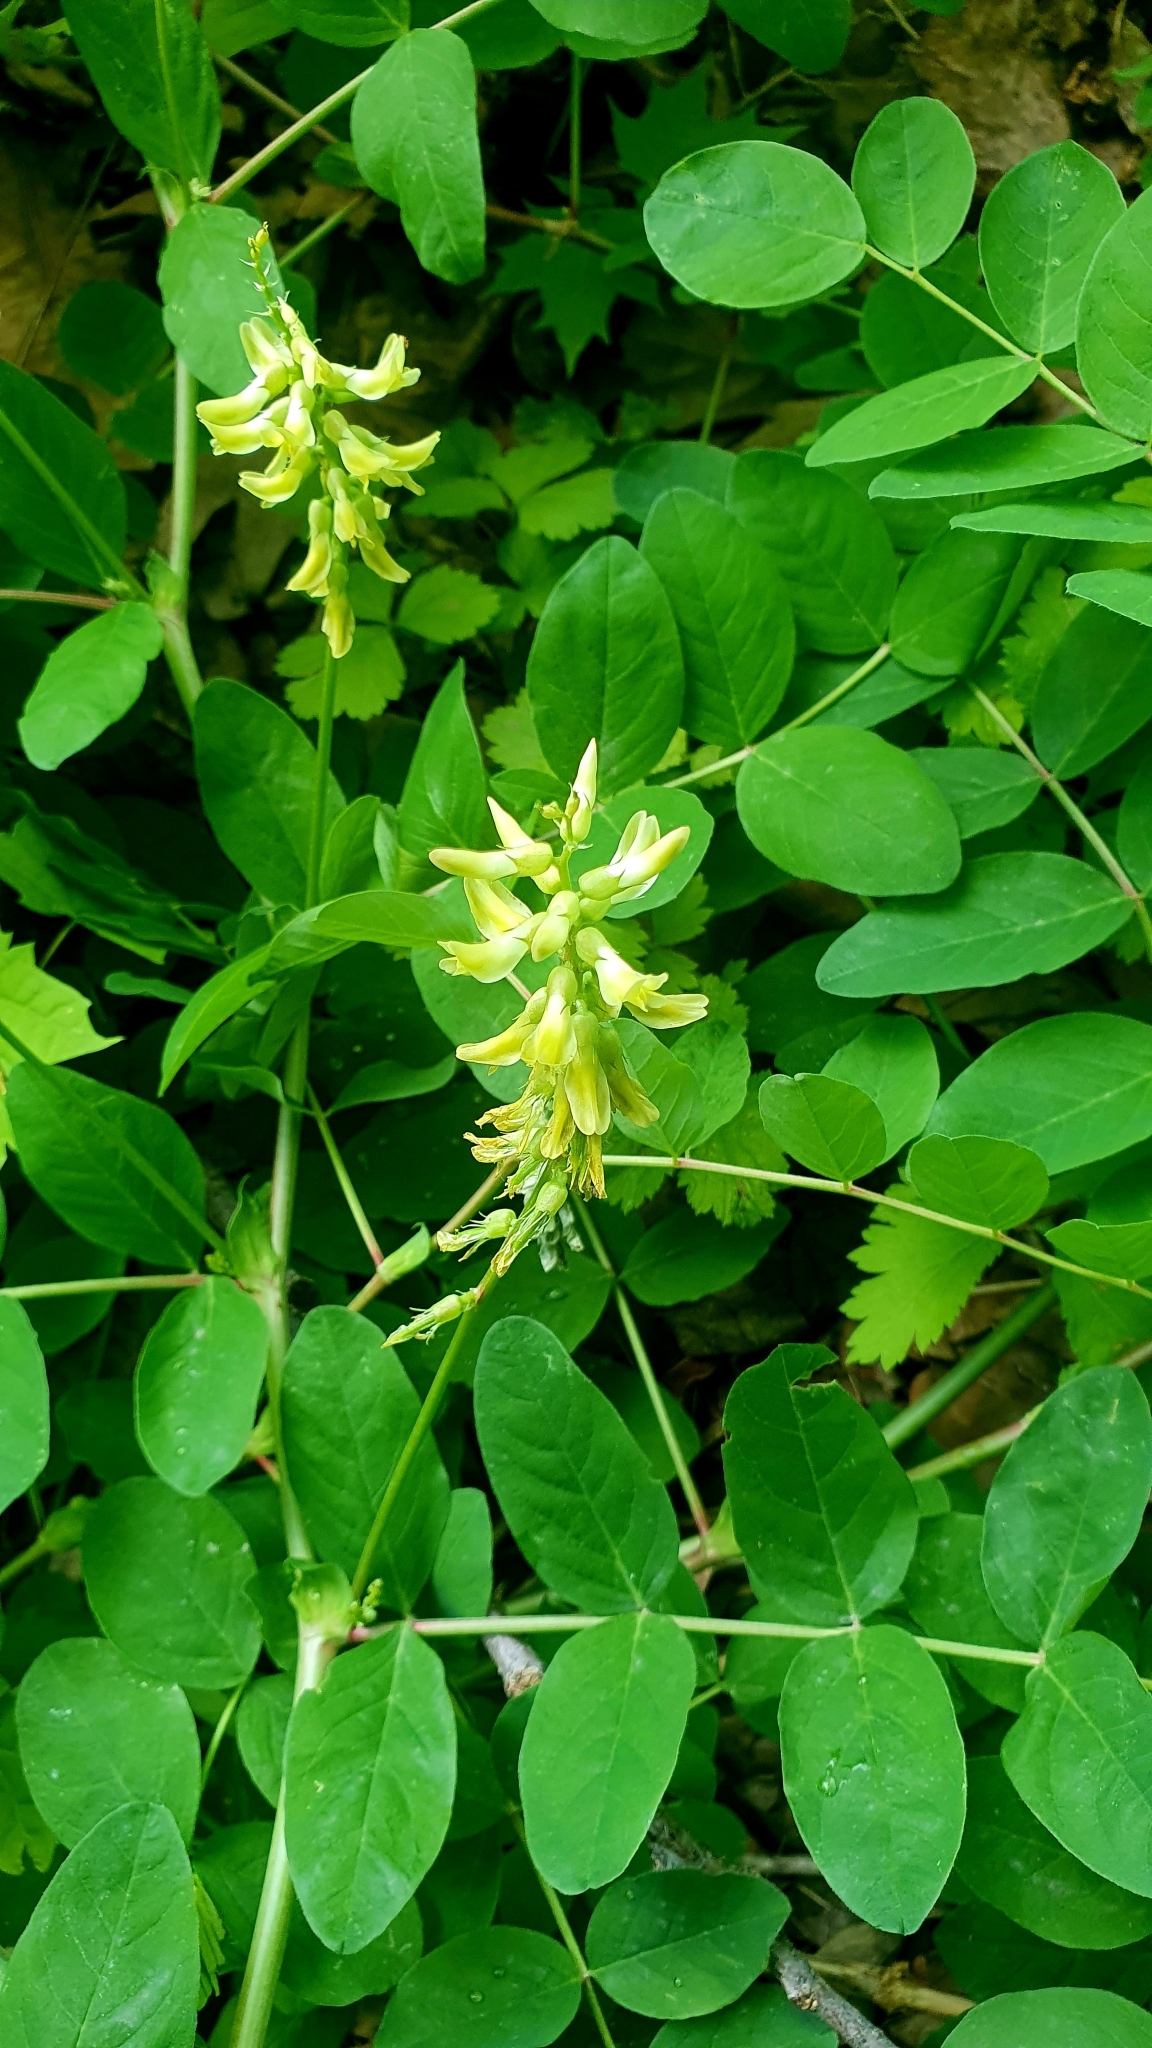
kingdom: Plantae
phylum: Tracheophyta
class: Magnoliopsida
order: Fabales
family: Fabaceae
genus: Astragalus
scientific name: Astragalus glycyphyllos
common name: Wild liquorice
